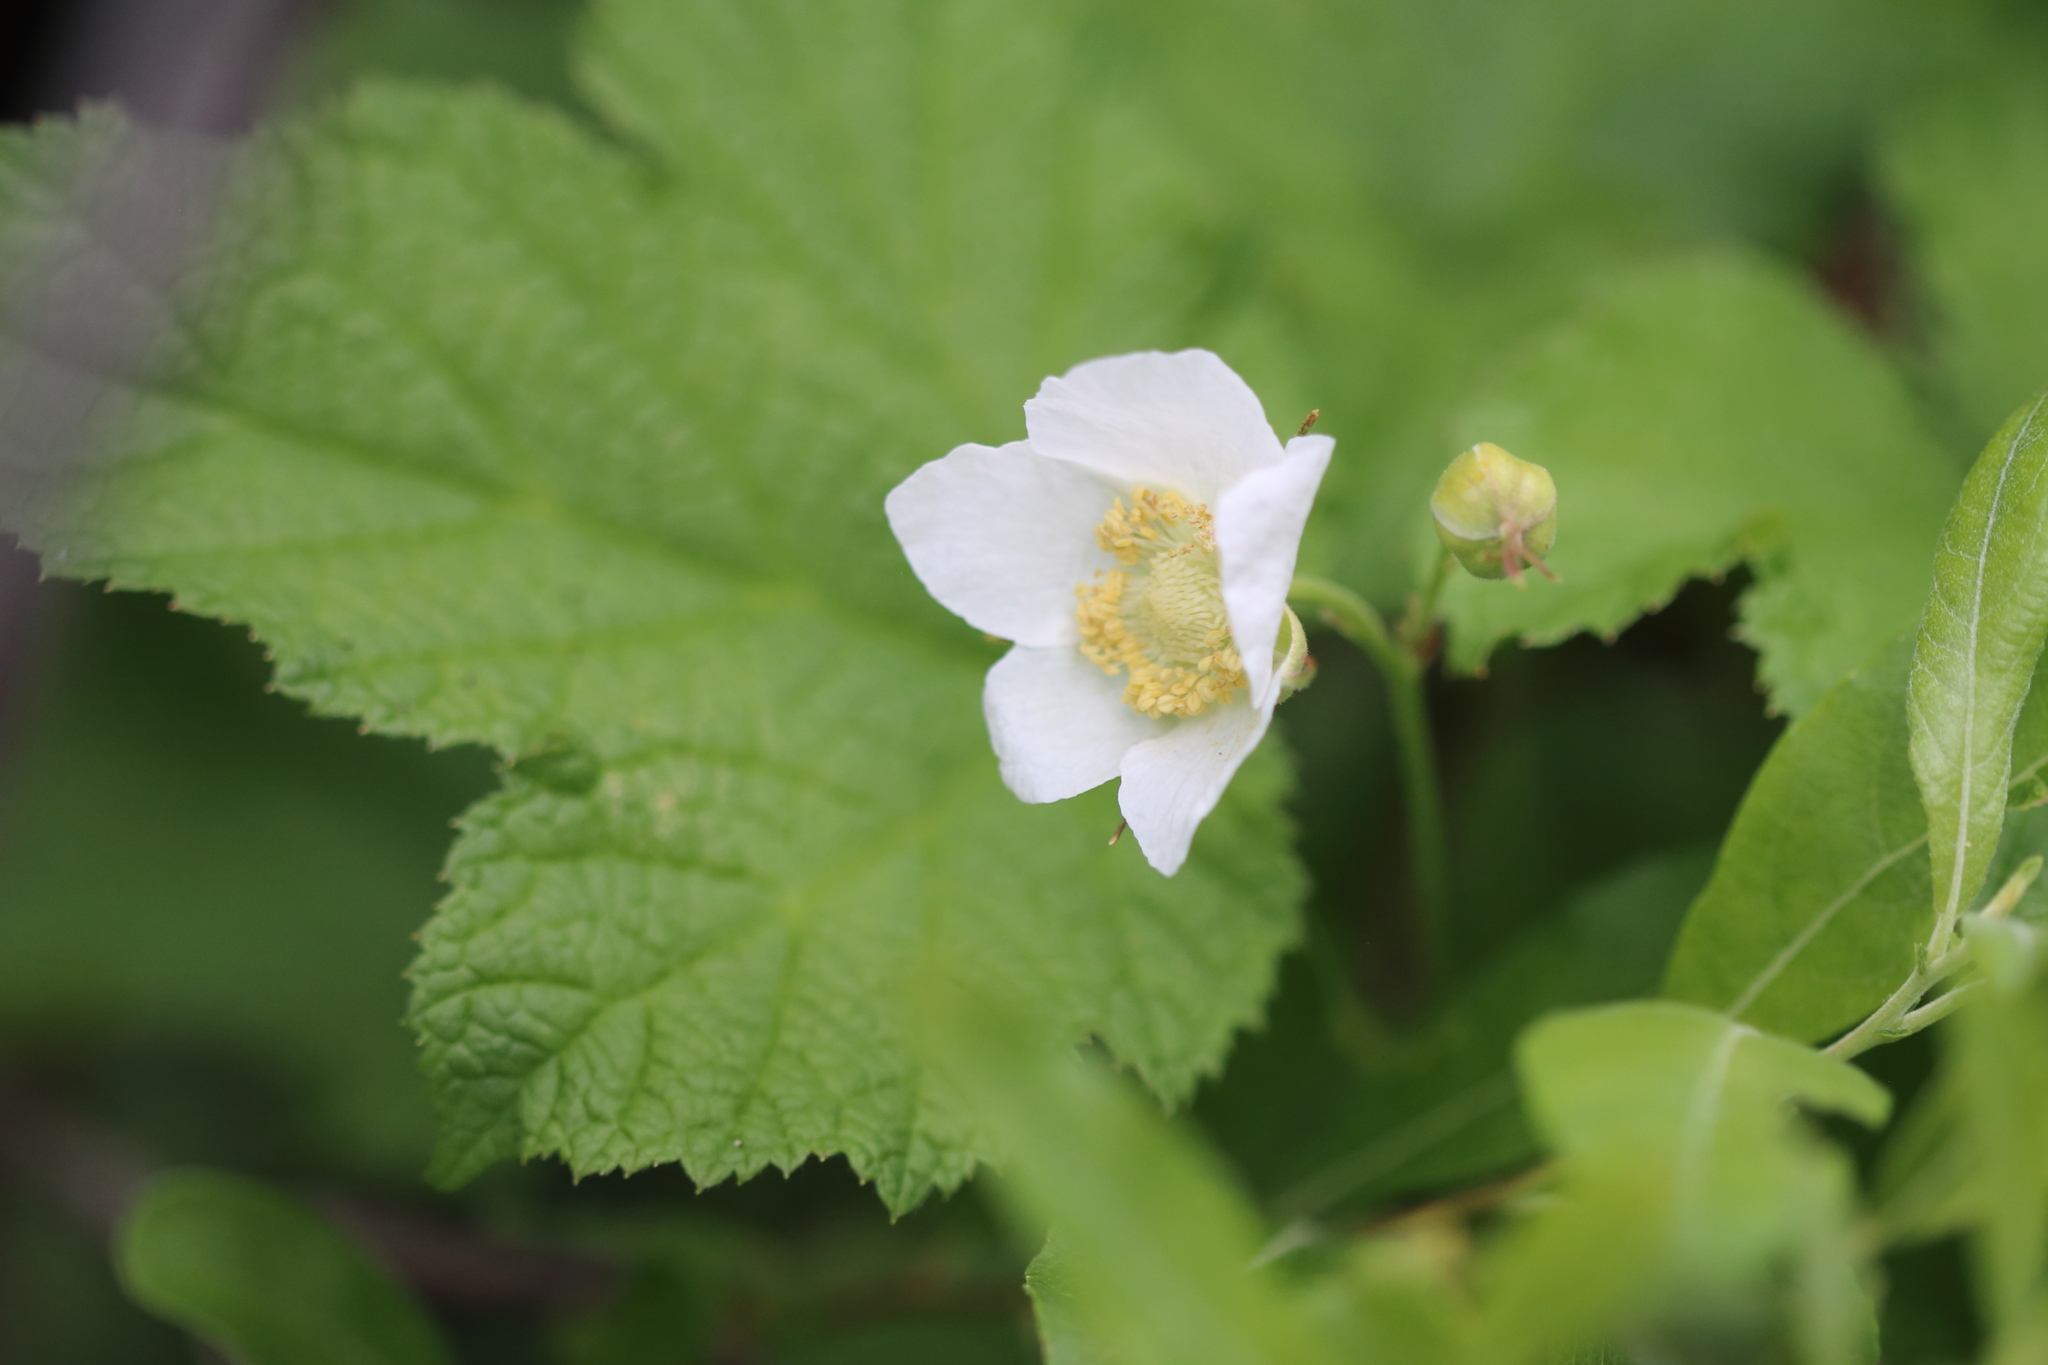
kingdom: Plantae
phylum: Tracheophyta
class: Magnoliopsida
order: Rosales
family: Rosaceae
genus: Rubus
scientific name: Rubus parviflorus
